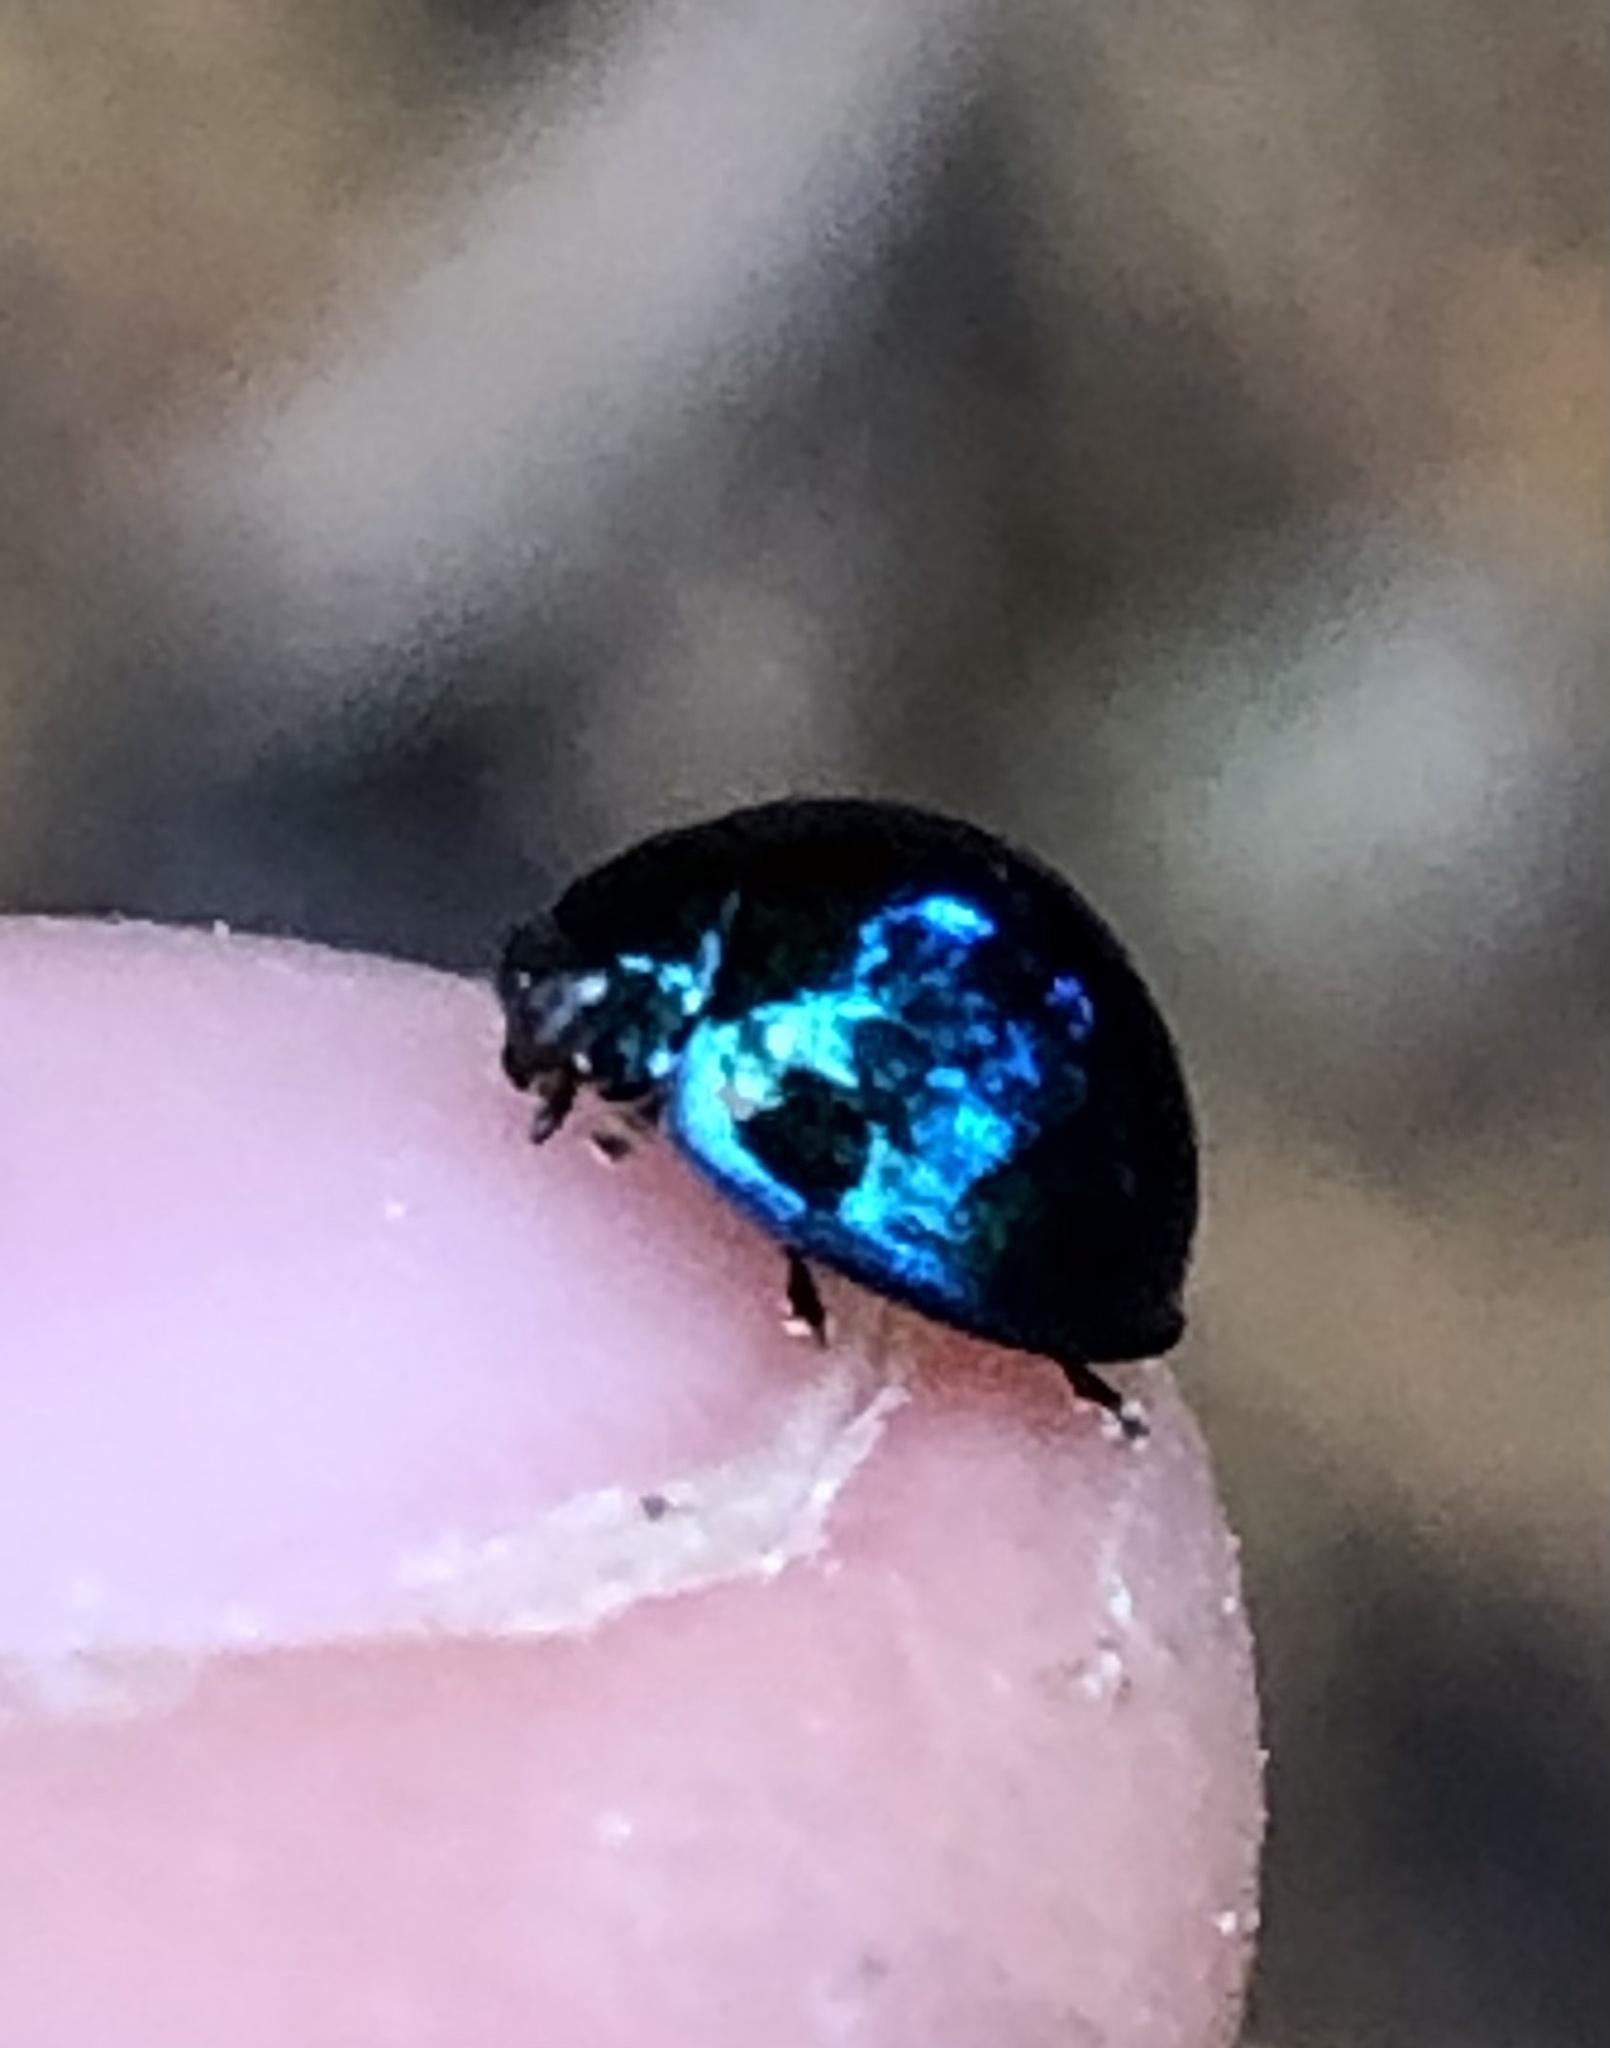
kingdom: Animalia
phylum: Arthropoda
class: Insecta
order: Coleoptera
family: Coccinellidae
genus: Halmus
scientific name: Halmus chalybeus
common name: Steel blue ladybird beetle
